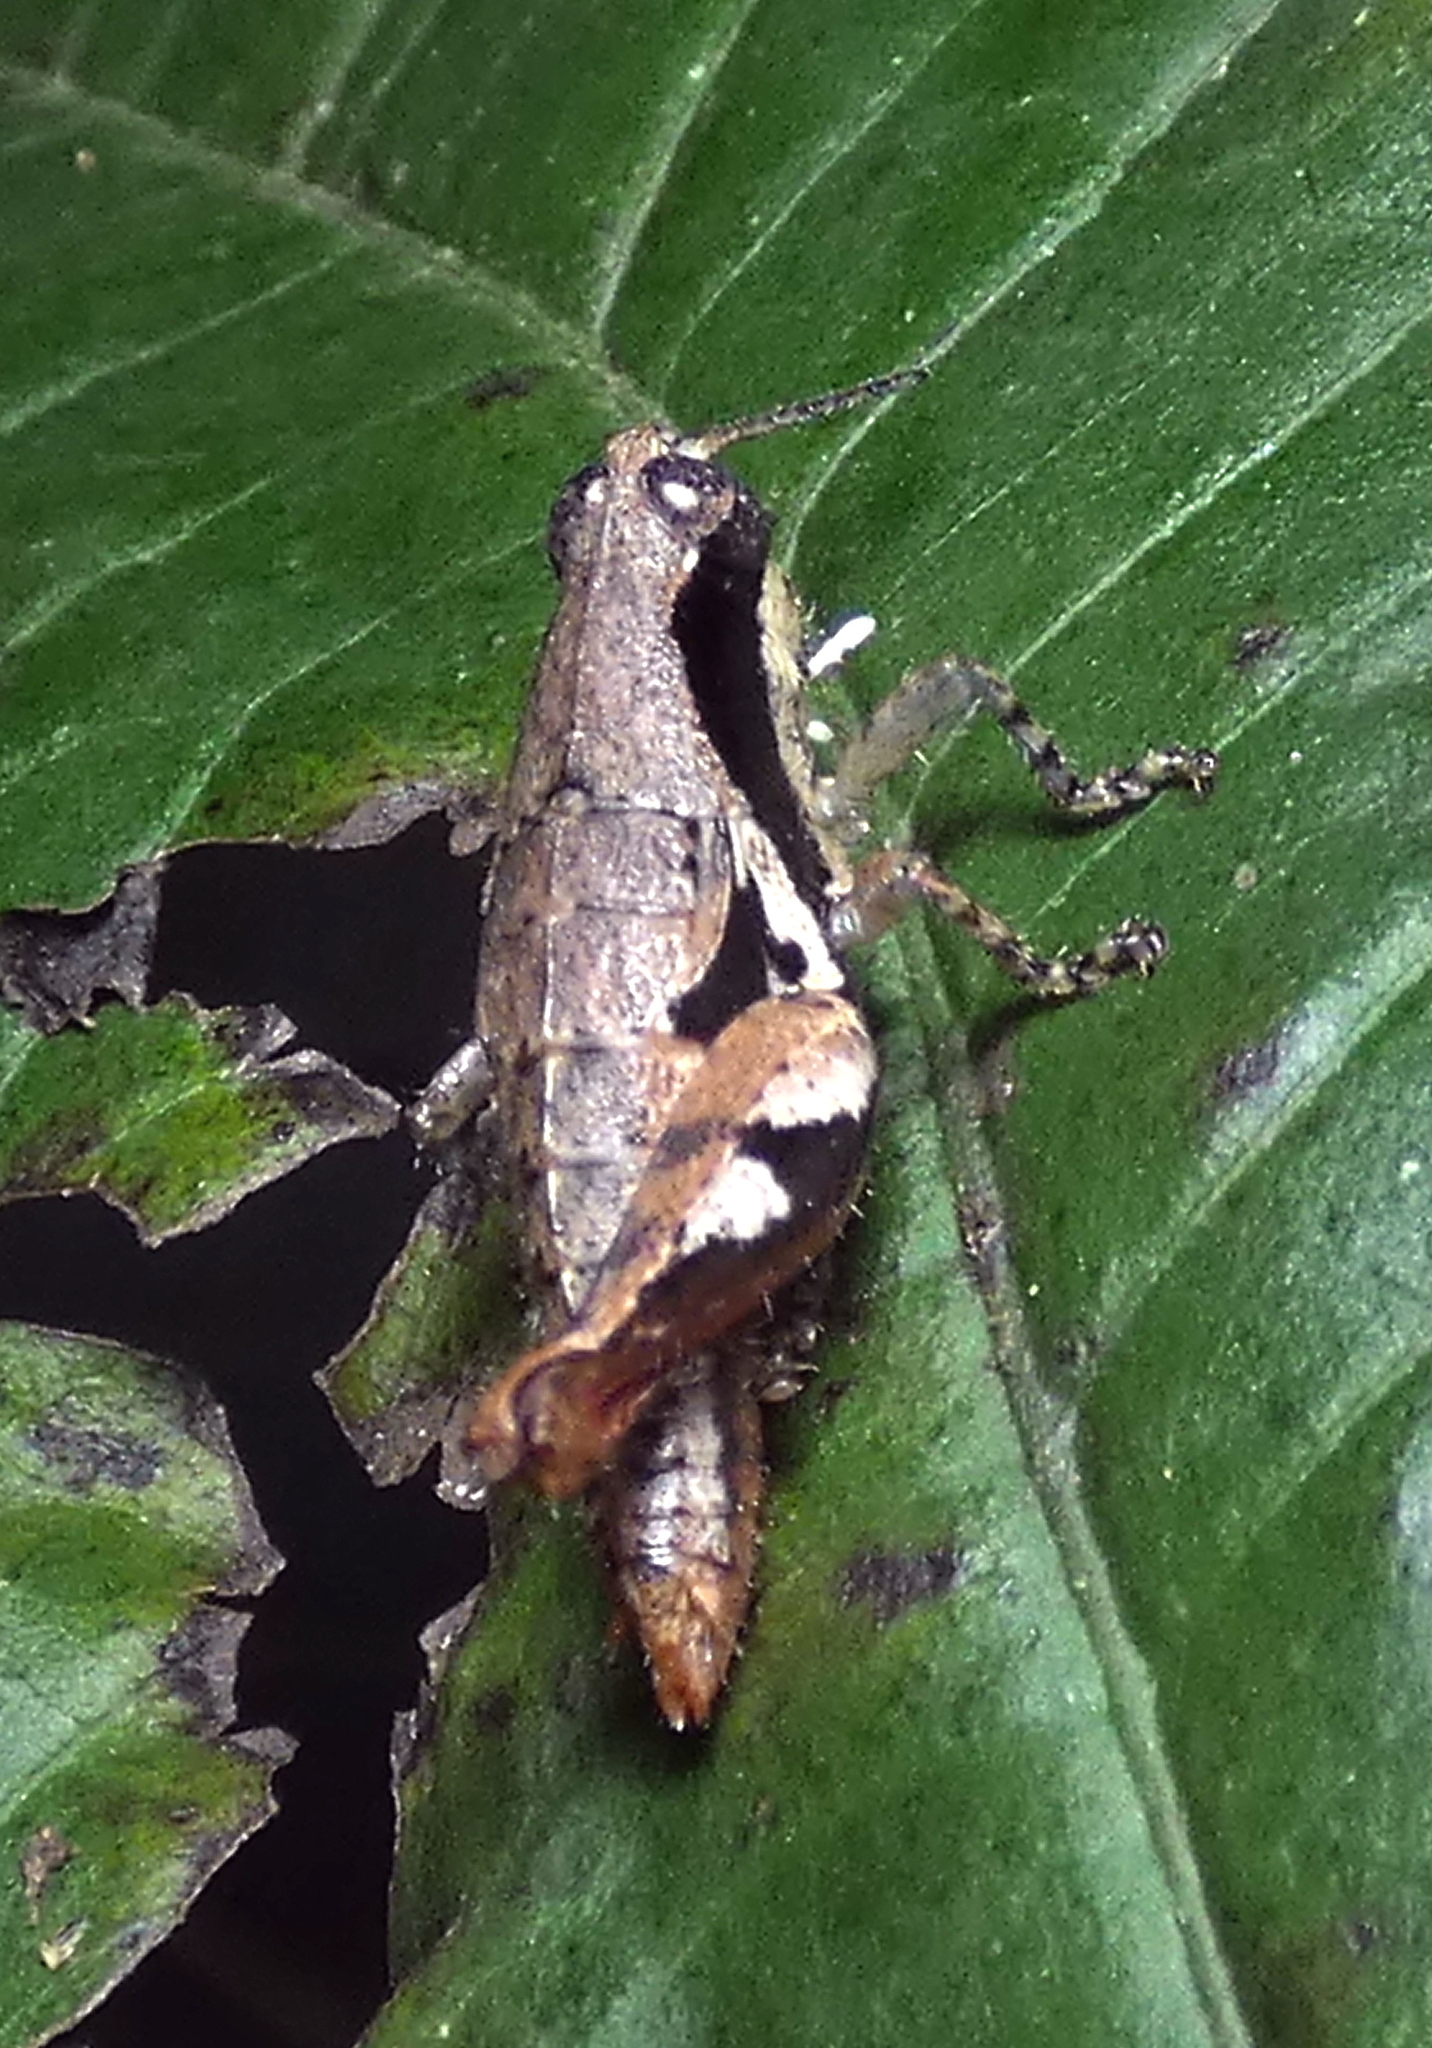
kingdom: Animalia
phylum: Arthropoda
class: Insecta
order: Orthoptera
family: Acrididae
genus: Eujivarus
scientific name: Eujivarus meridionalis
